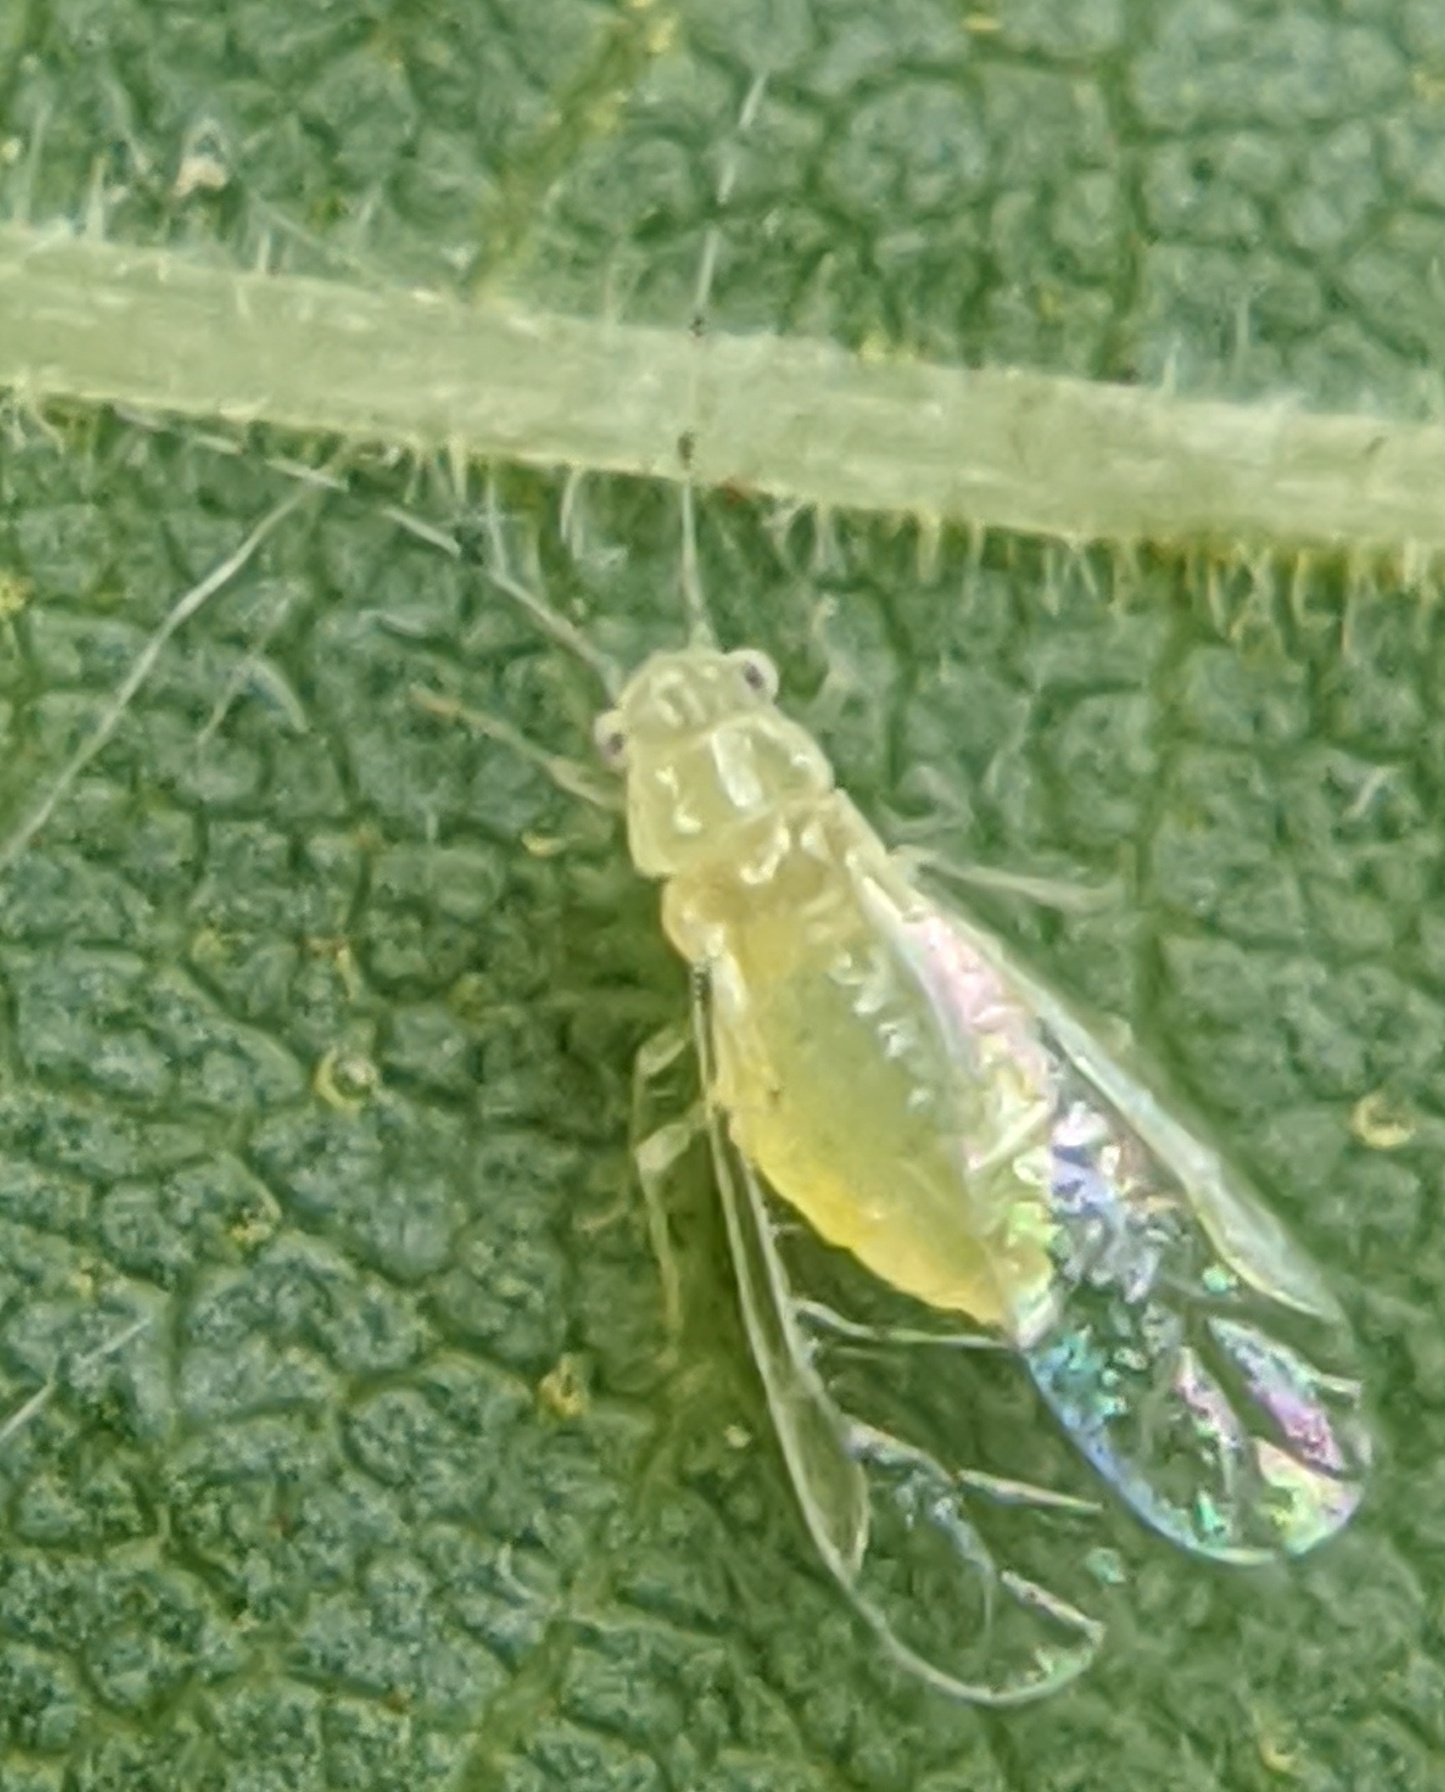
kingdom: Animalia
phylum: Arthropoda
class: Insecta
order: Hemiptera
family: Aphididae
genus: Monellia
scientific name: Monellia microsetosa
